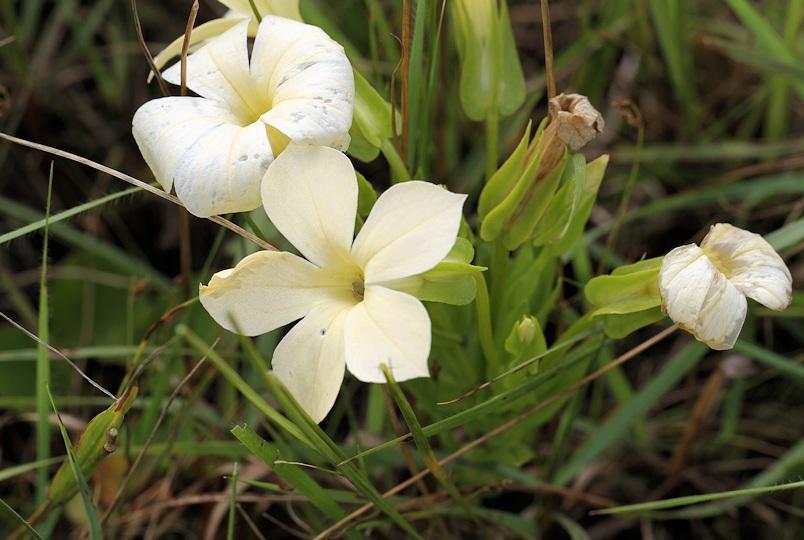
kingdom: Plantae
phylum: Tracheophyta
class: Magnoliopsida
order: Gentianales
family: Gentianaceae
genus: Exochaenium
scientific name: Exochaenium grande
